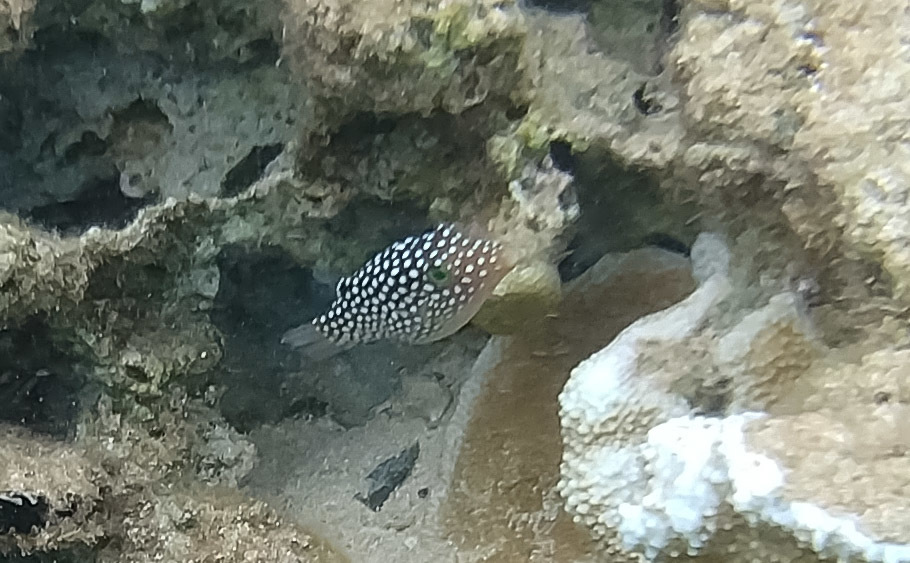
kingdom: Animalia
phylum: Chordata
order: Tetraodontiformes
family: Tetraodontidae
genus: Canthigaster
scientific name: Canthigaster jactator
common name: Hawaiian whitespotted toby
